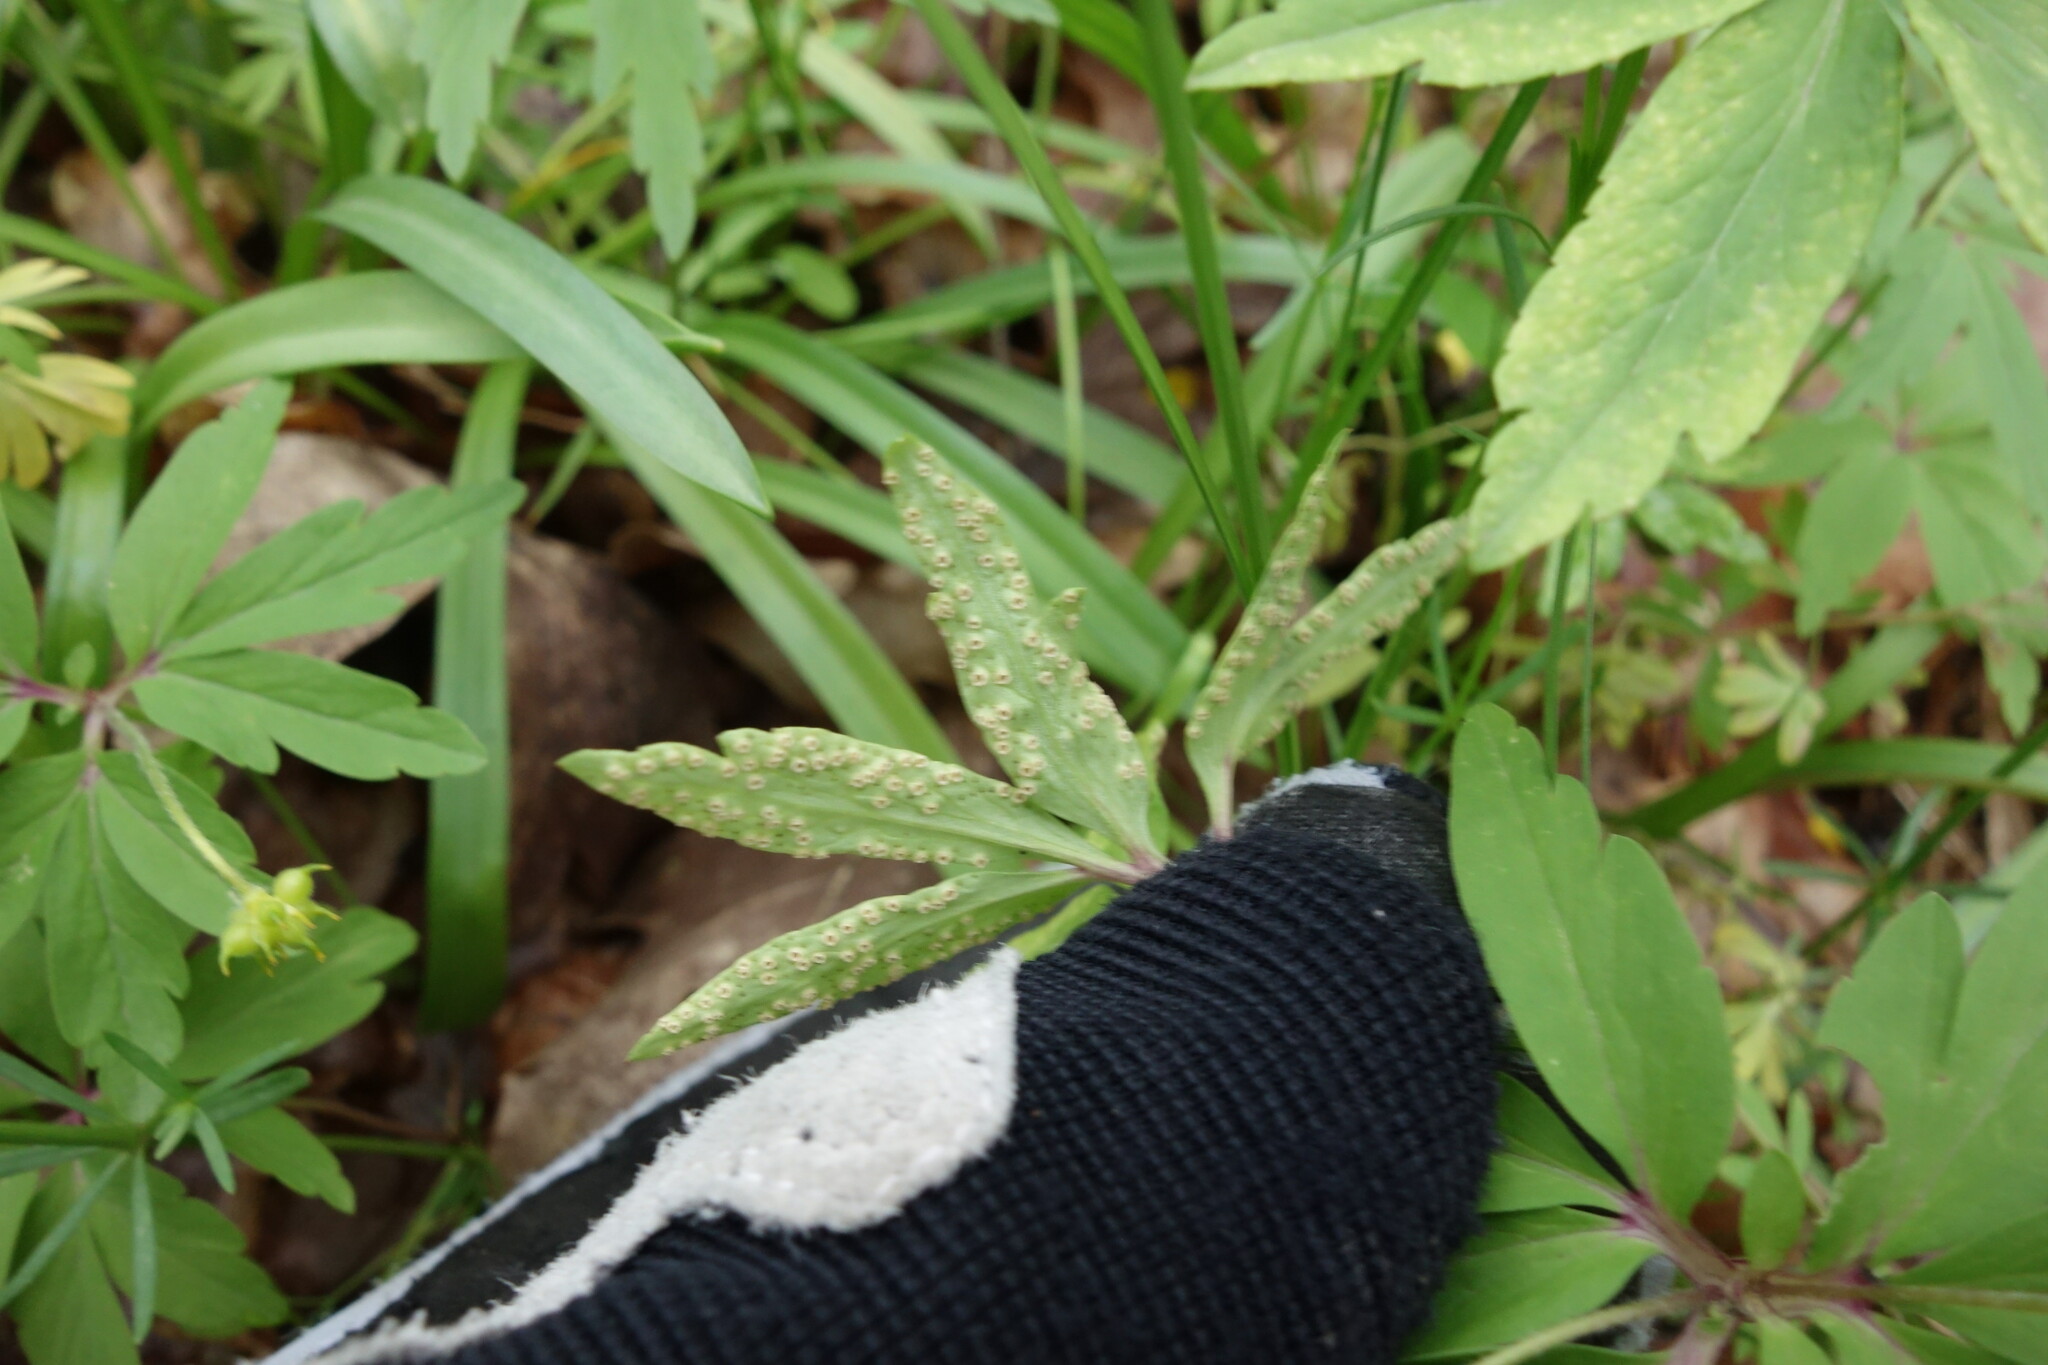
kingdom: Fungi
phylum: Basidiomycota
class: Pucciniomycetes
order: Pucciniales
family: Tranzscheliaceae
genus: Tranzschelia
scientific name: Tranzschelia pruni-spinosae
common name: Blackthorn rust
